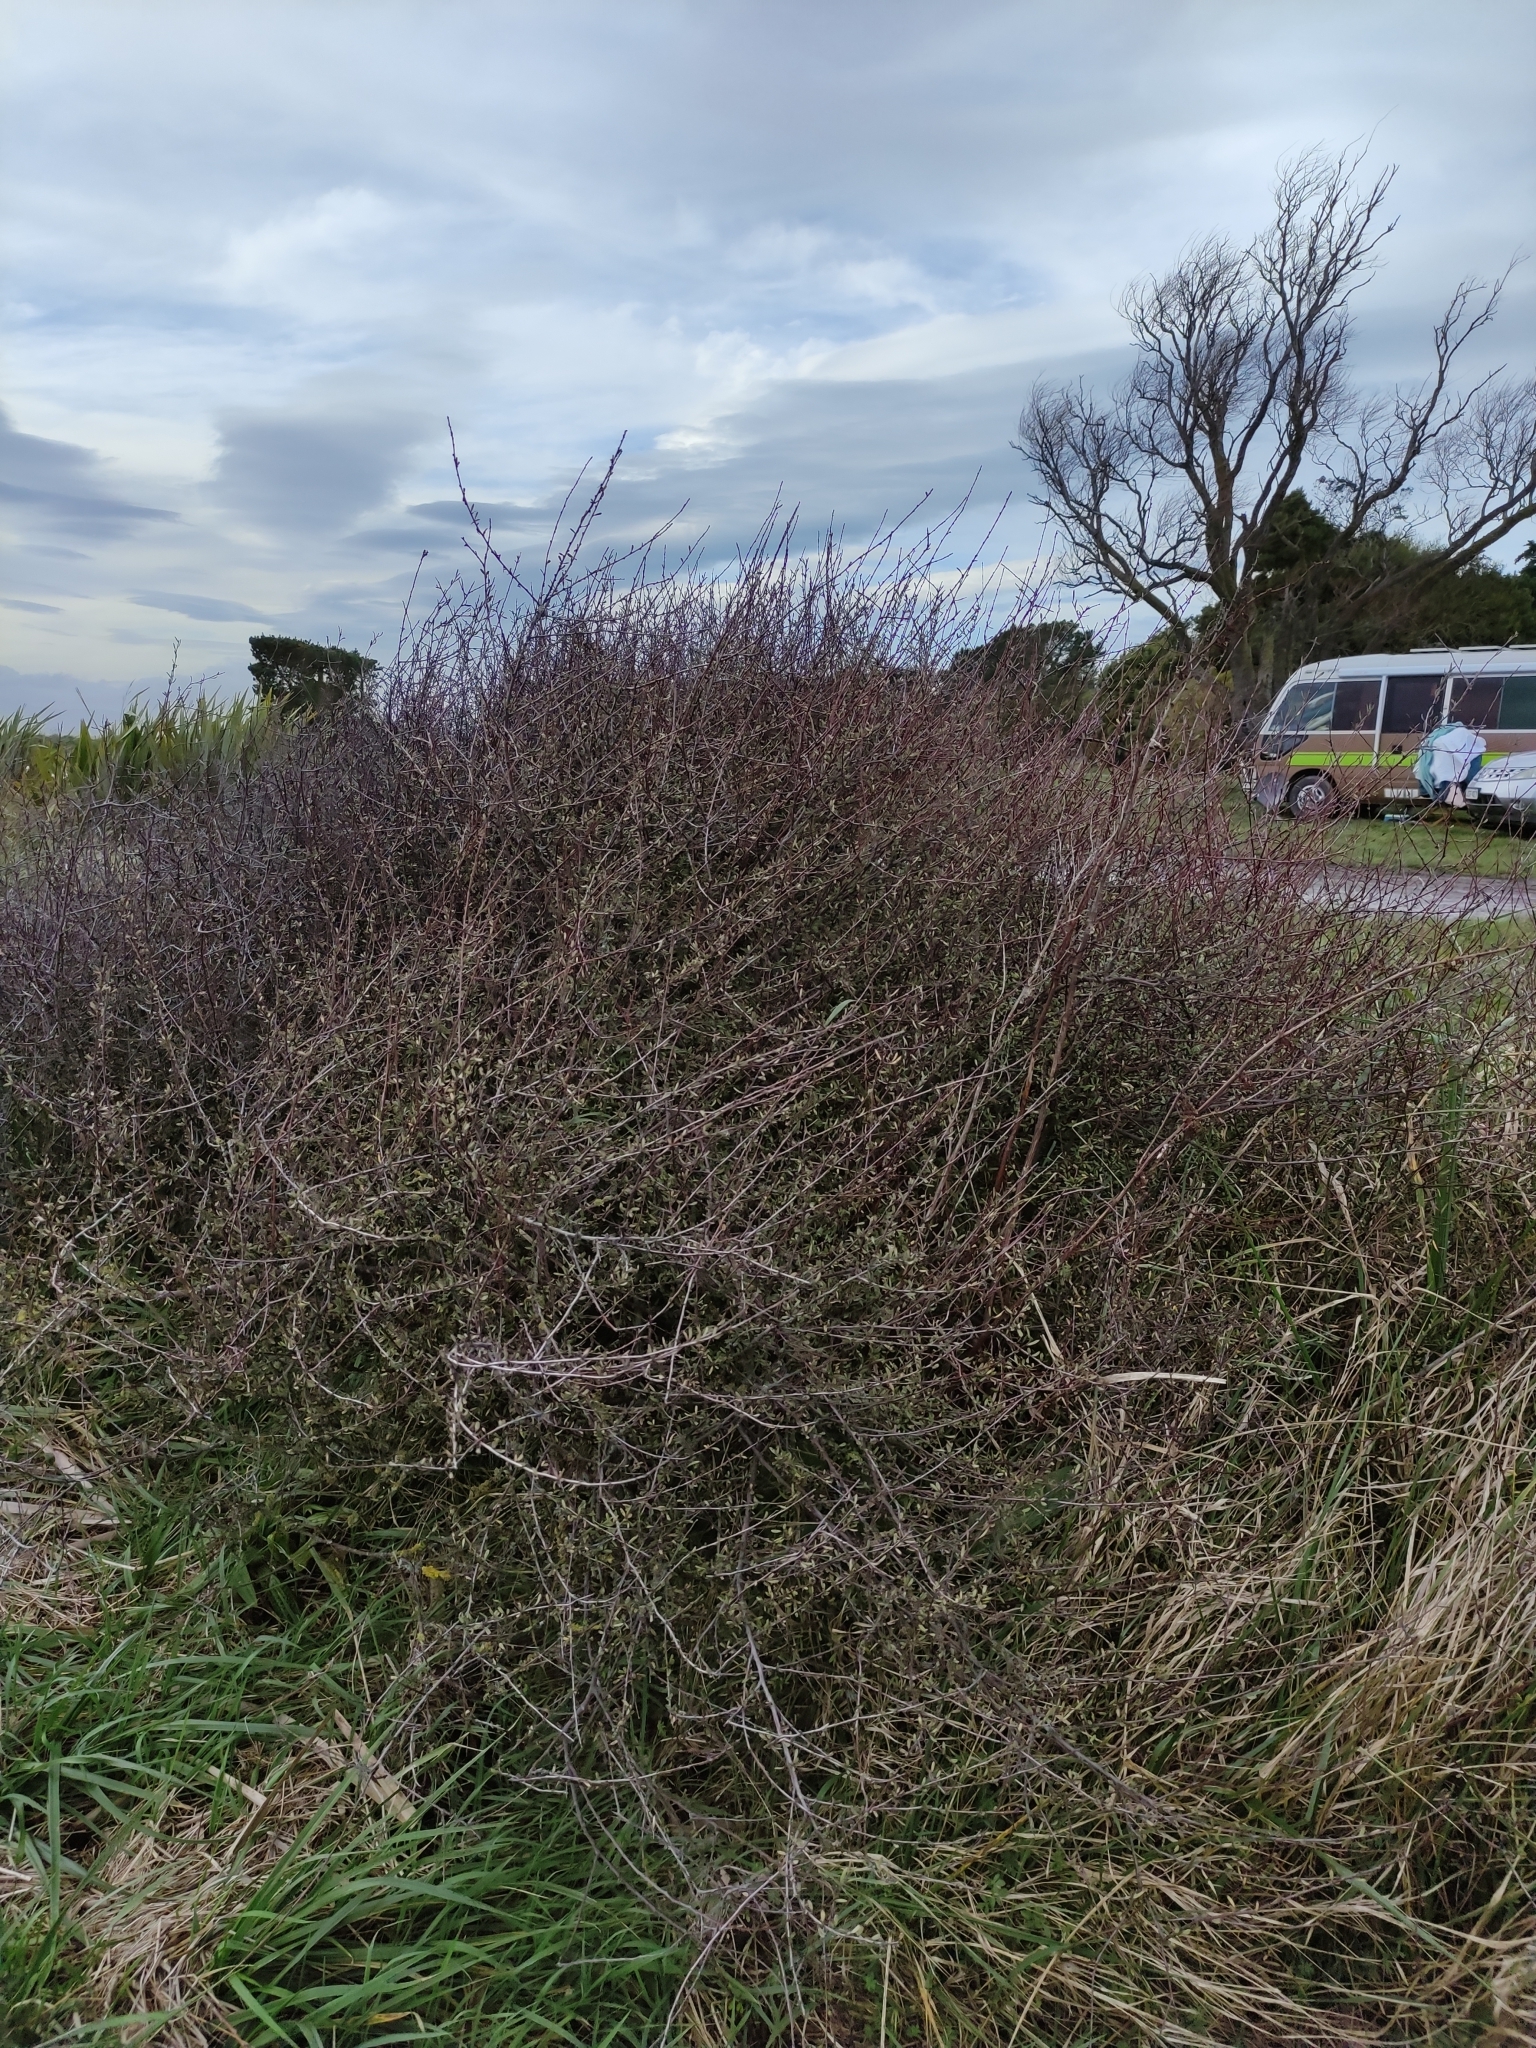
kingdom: Plantae
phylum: Tracheophyta
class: Magnoliopsida
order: Malvales
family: Malvaceae
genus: Plagianthus
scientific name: Plagianthus divaricatus
